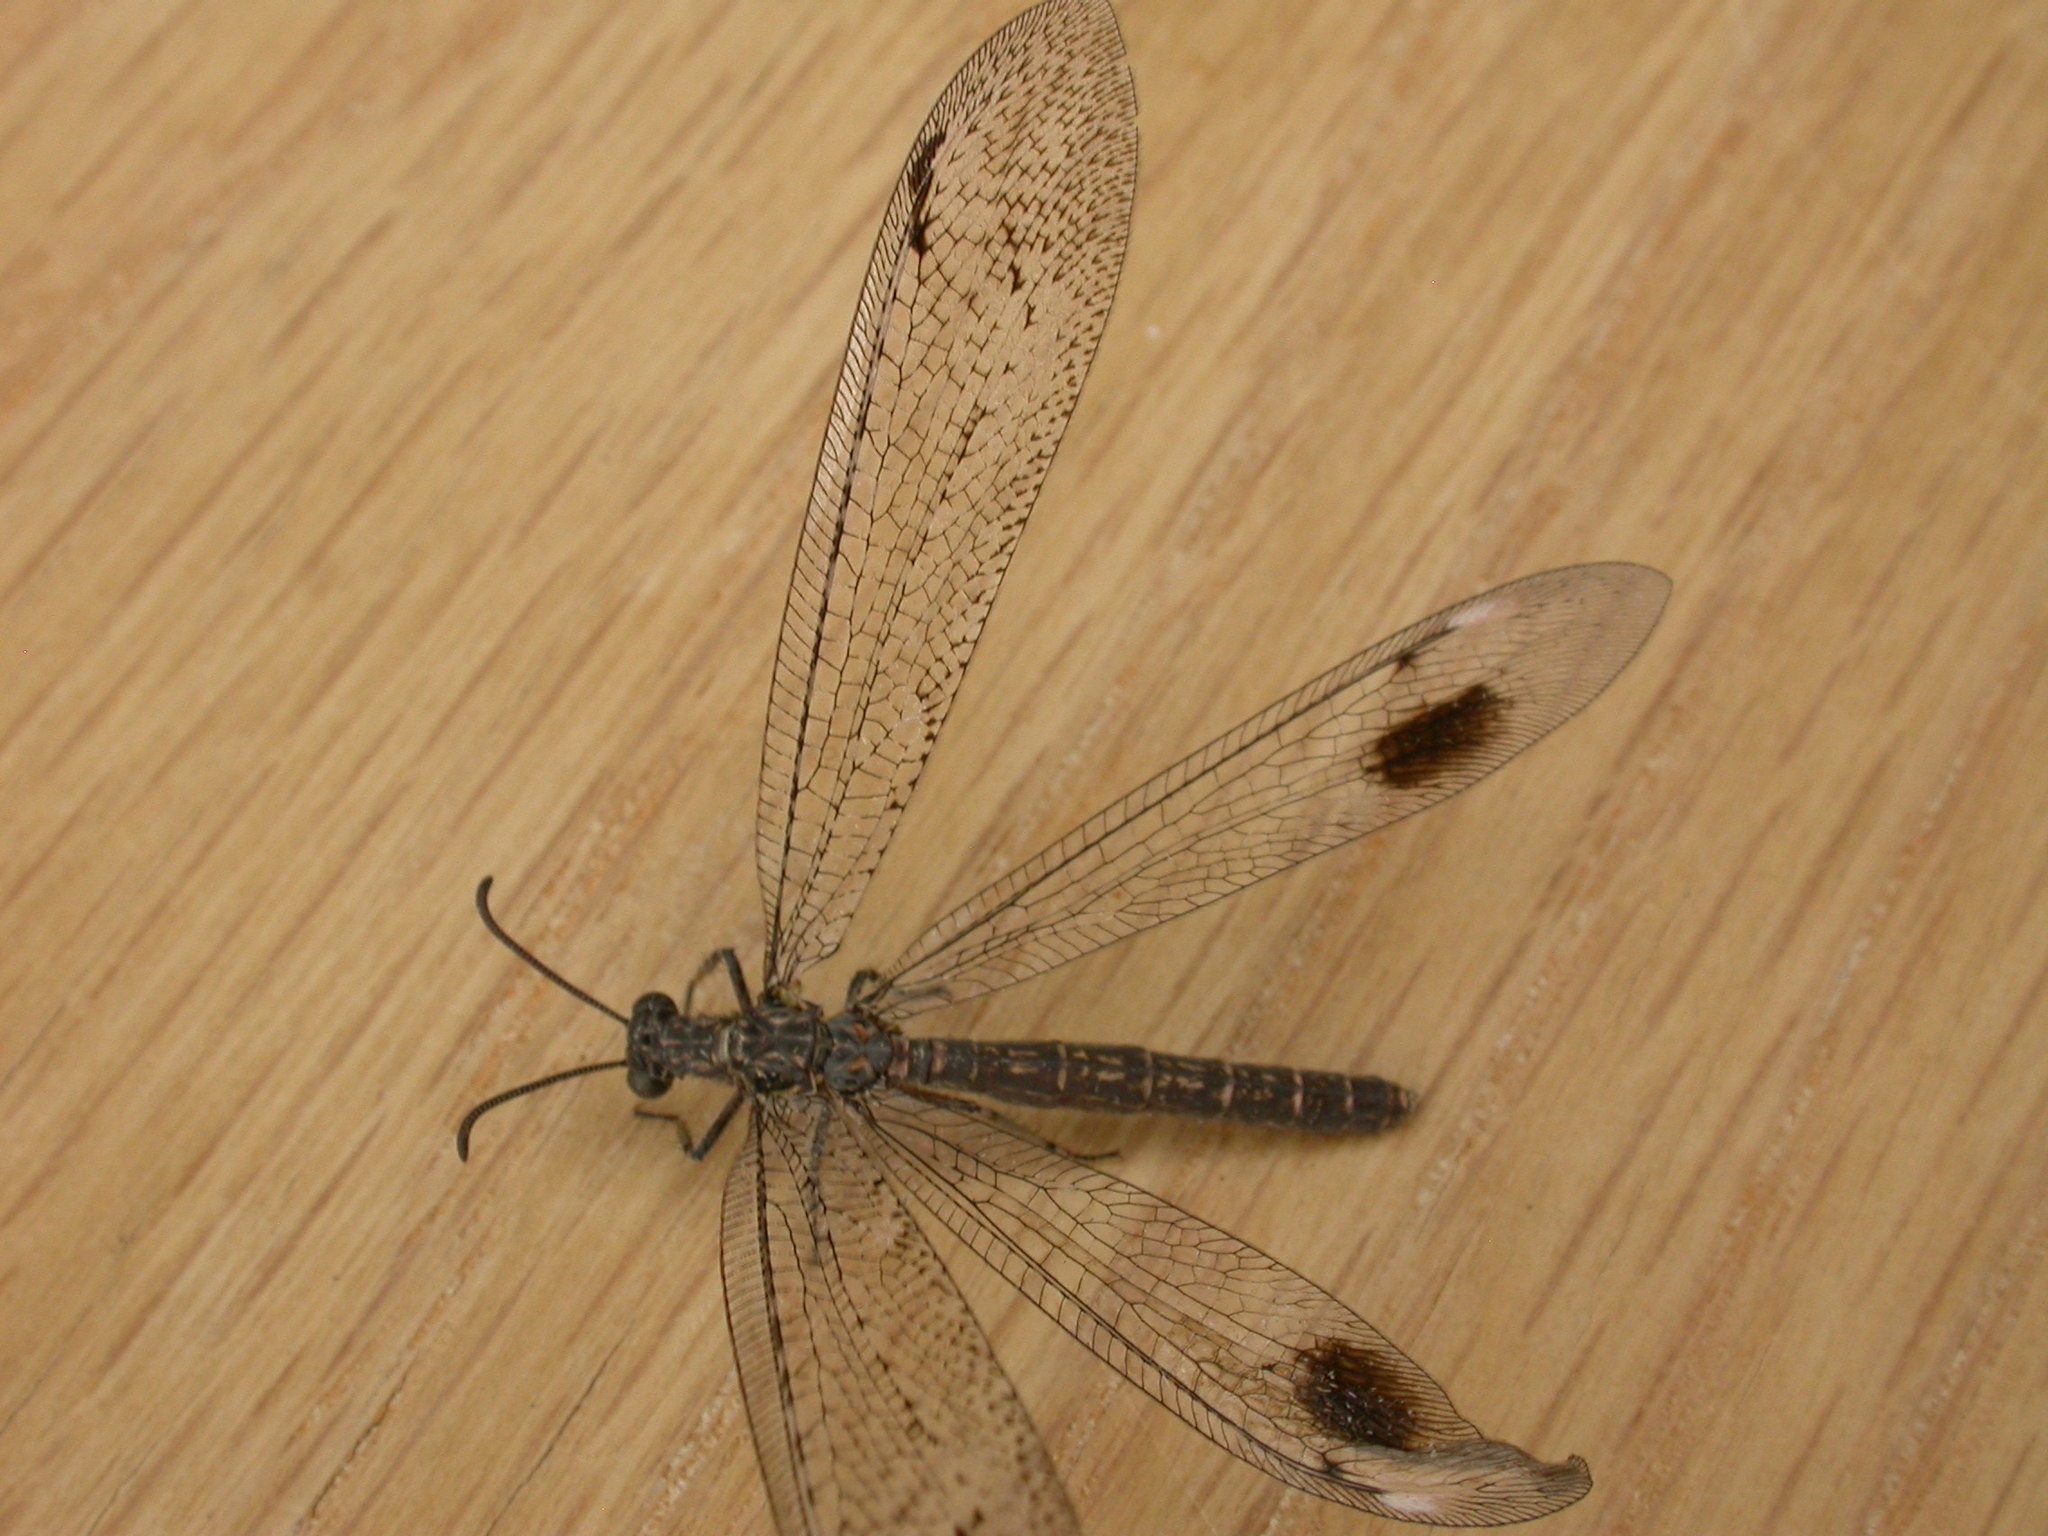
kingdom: Animalia
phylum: Arthropoda
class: Insecta
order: Neuroptera
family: Myrmeleontidae
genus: Austrogymnocnemia
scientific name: Austrogymnocnemia
